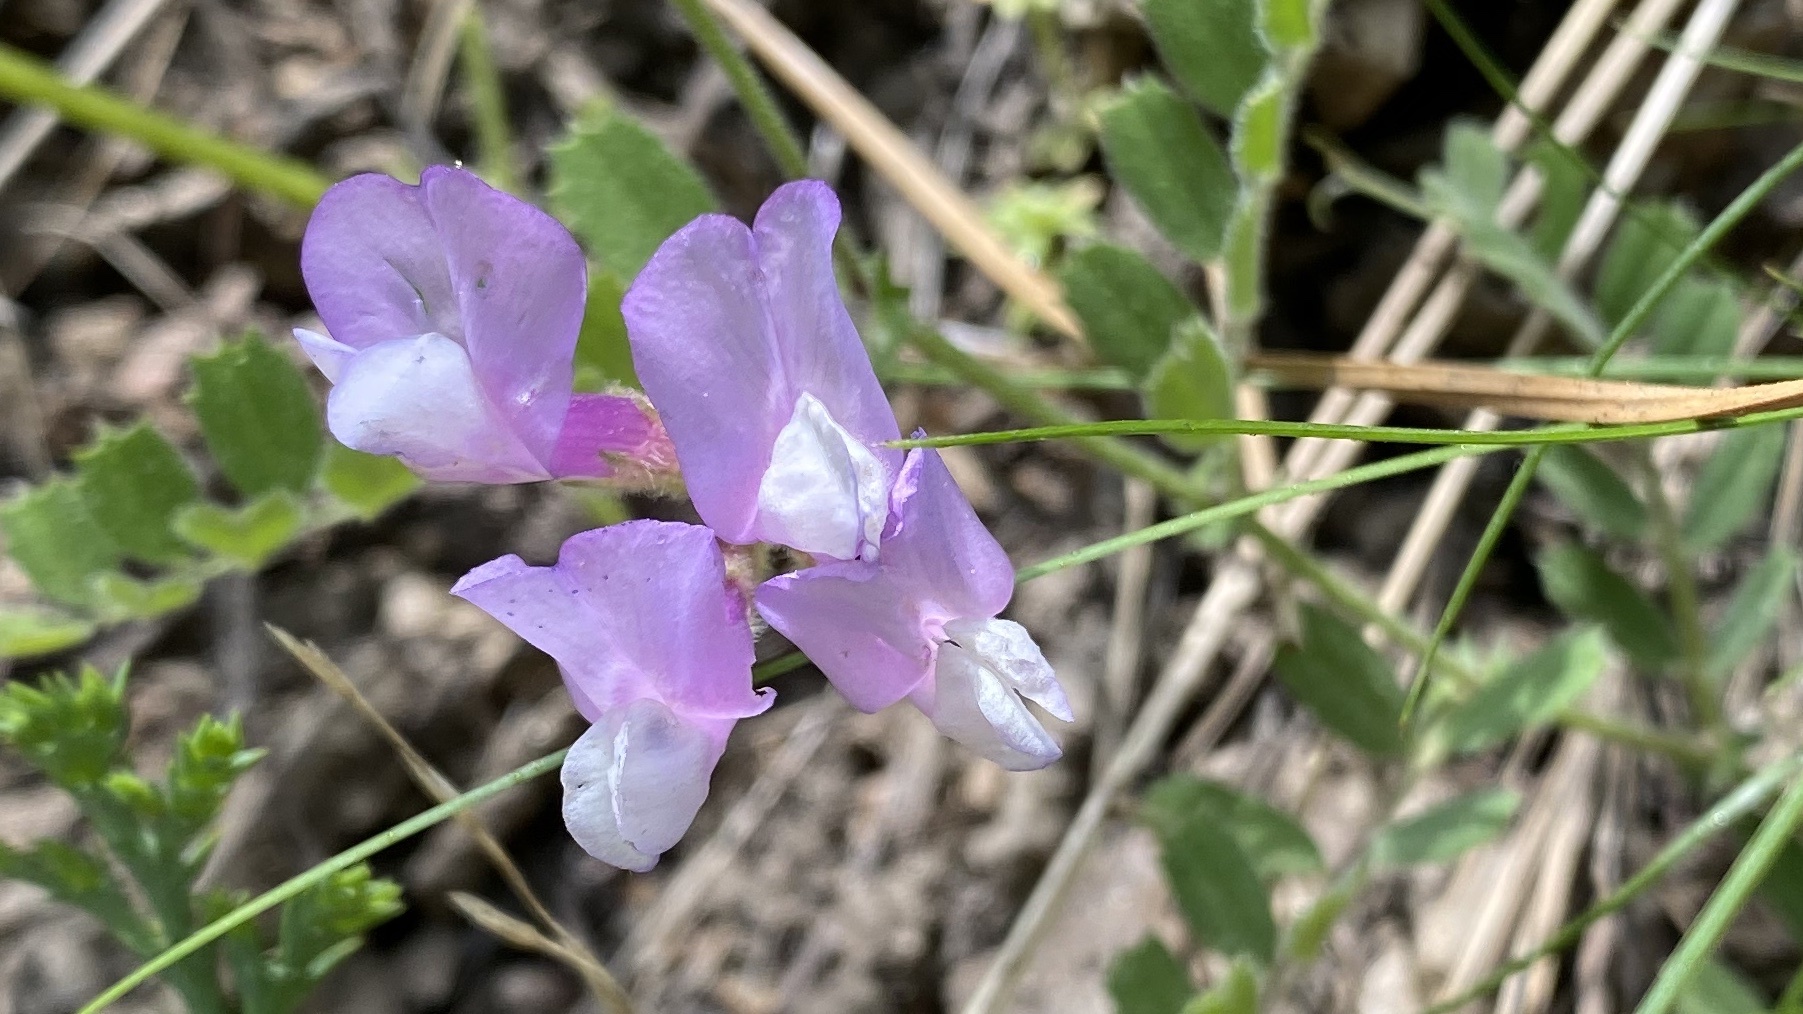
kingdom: Plantae
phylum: Tracheophyta
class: Magnoliopsida
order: Fabales
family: Fabaceae
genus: Lathyrus
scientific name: Lathyrus nevadensis
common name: Sierra nevada peavine
